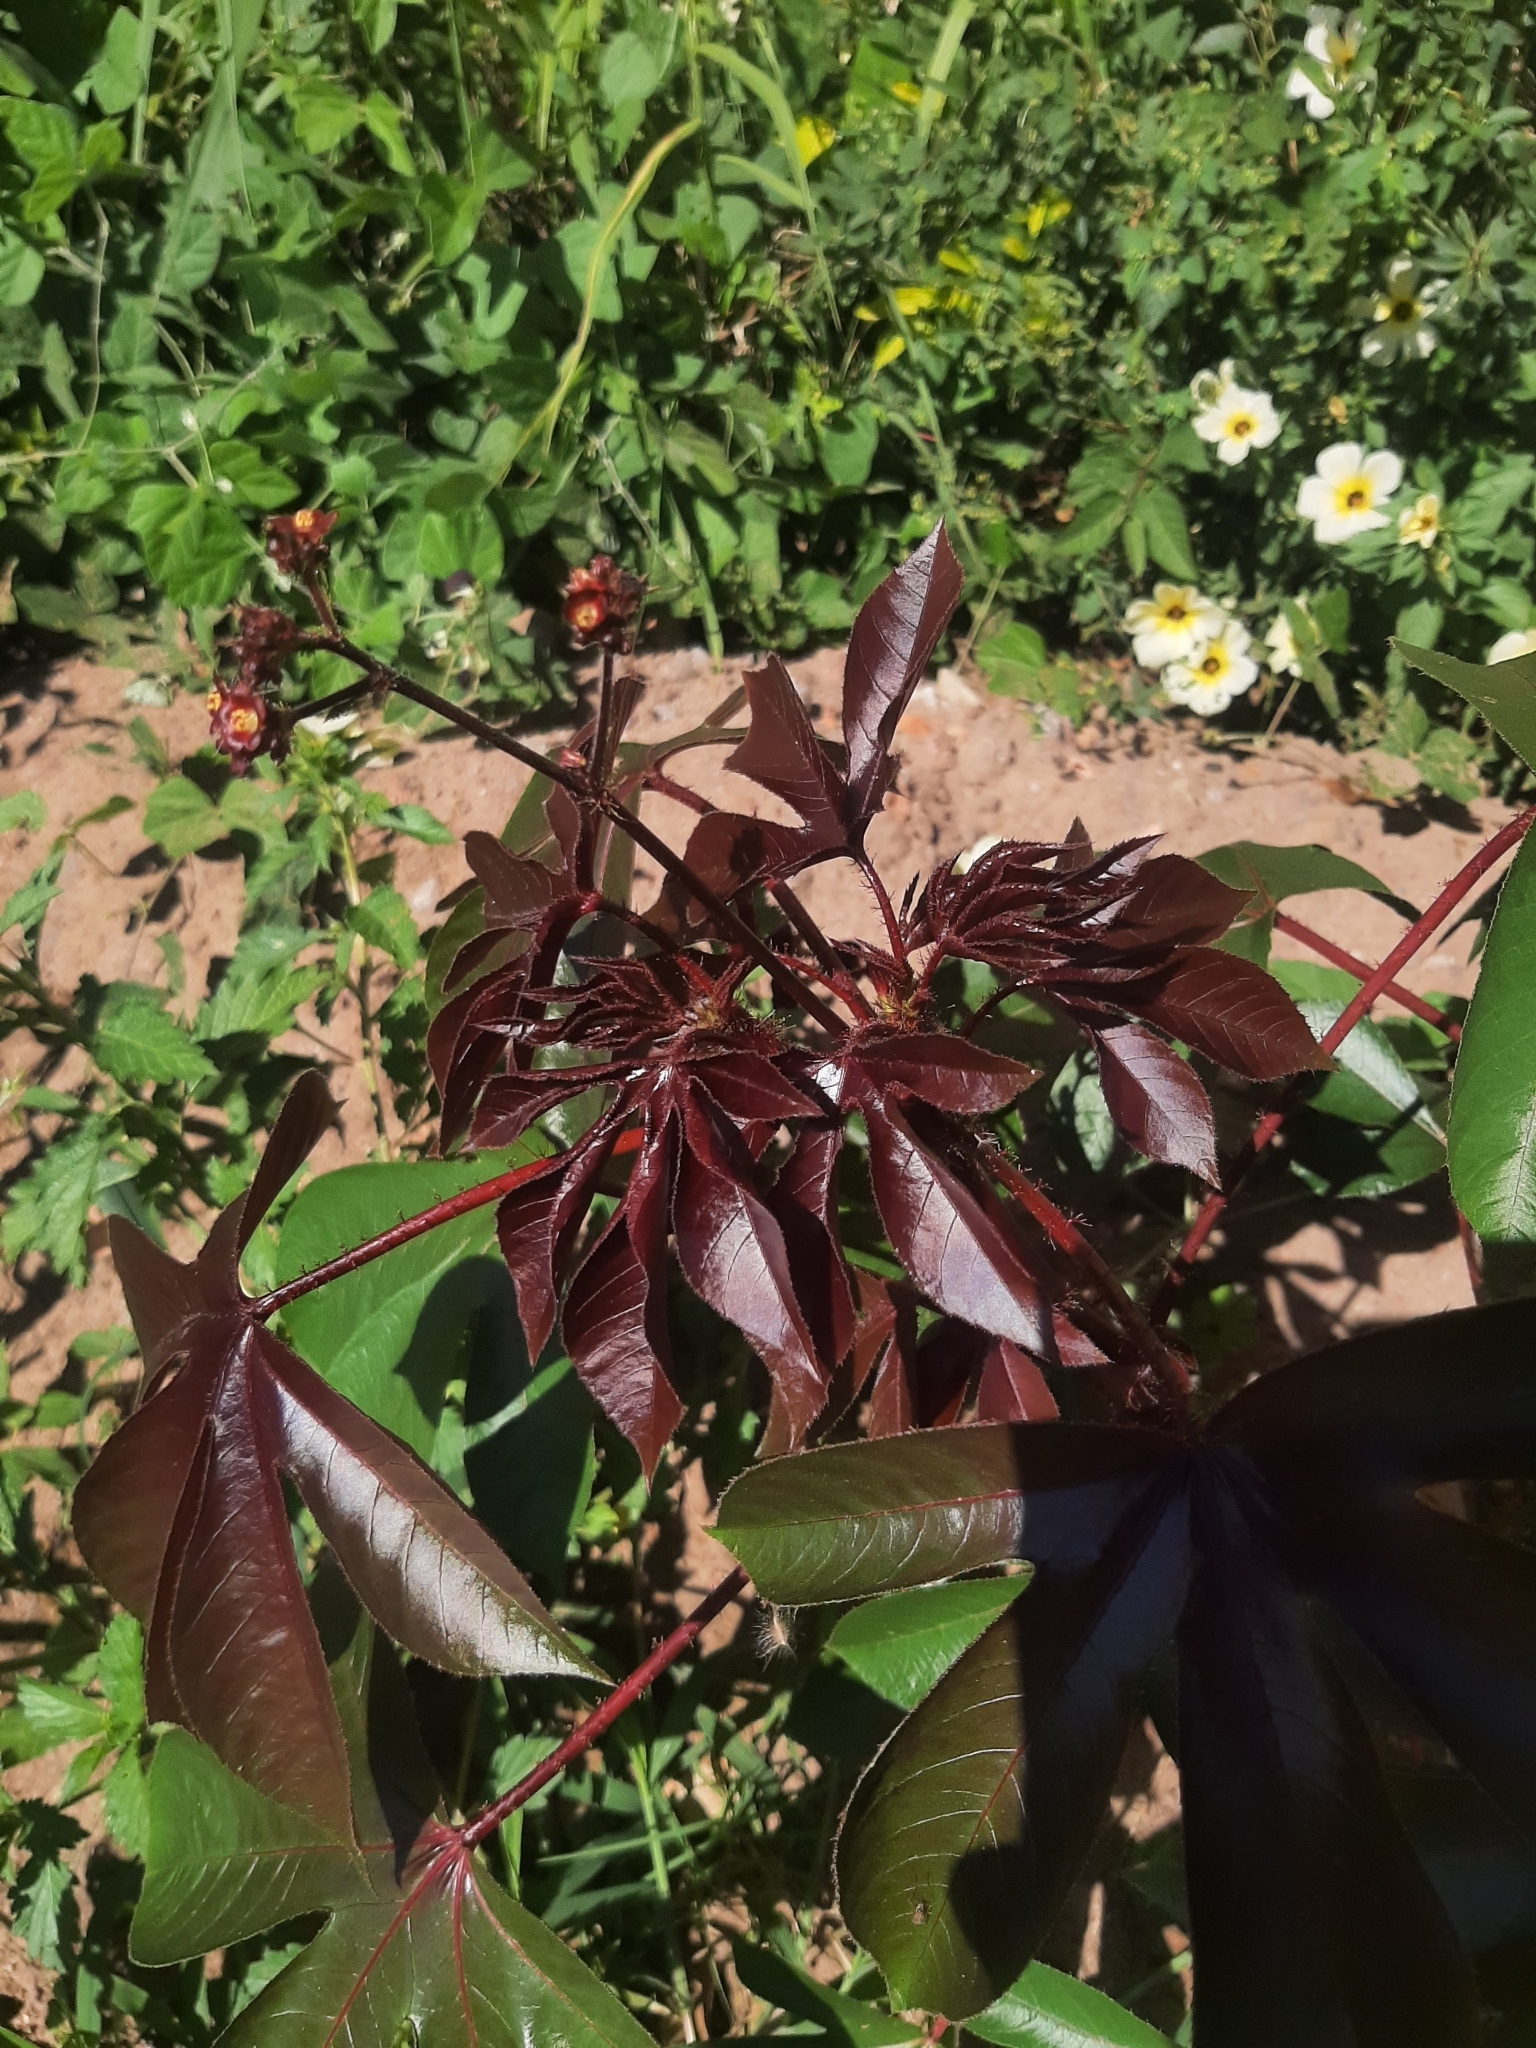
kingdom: Plantae
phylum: Tracheophyta
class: Magnoliopsida
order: Malpighiales
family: Euphorbiaceae
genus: Jatropha
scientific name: Jatropha gossypiifolia
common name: Bellyache bush
